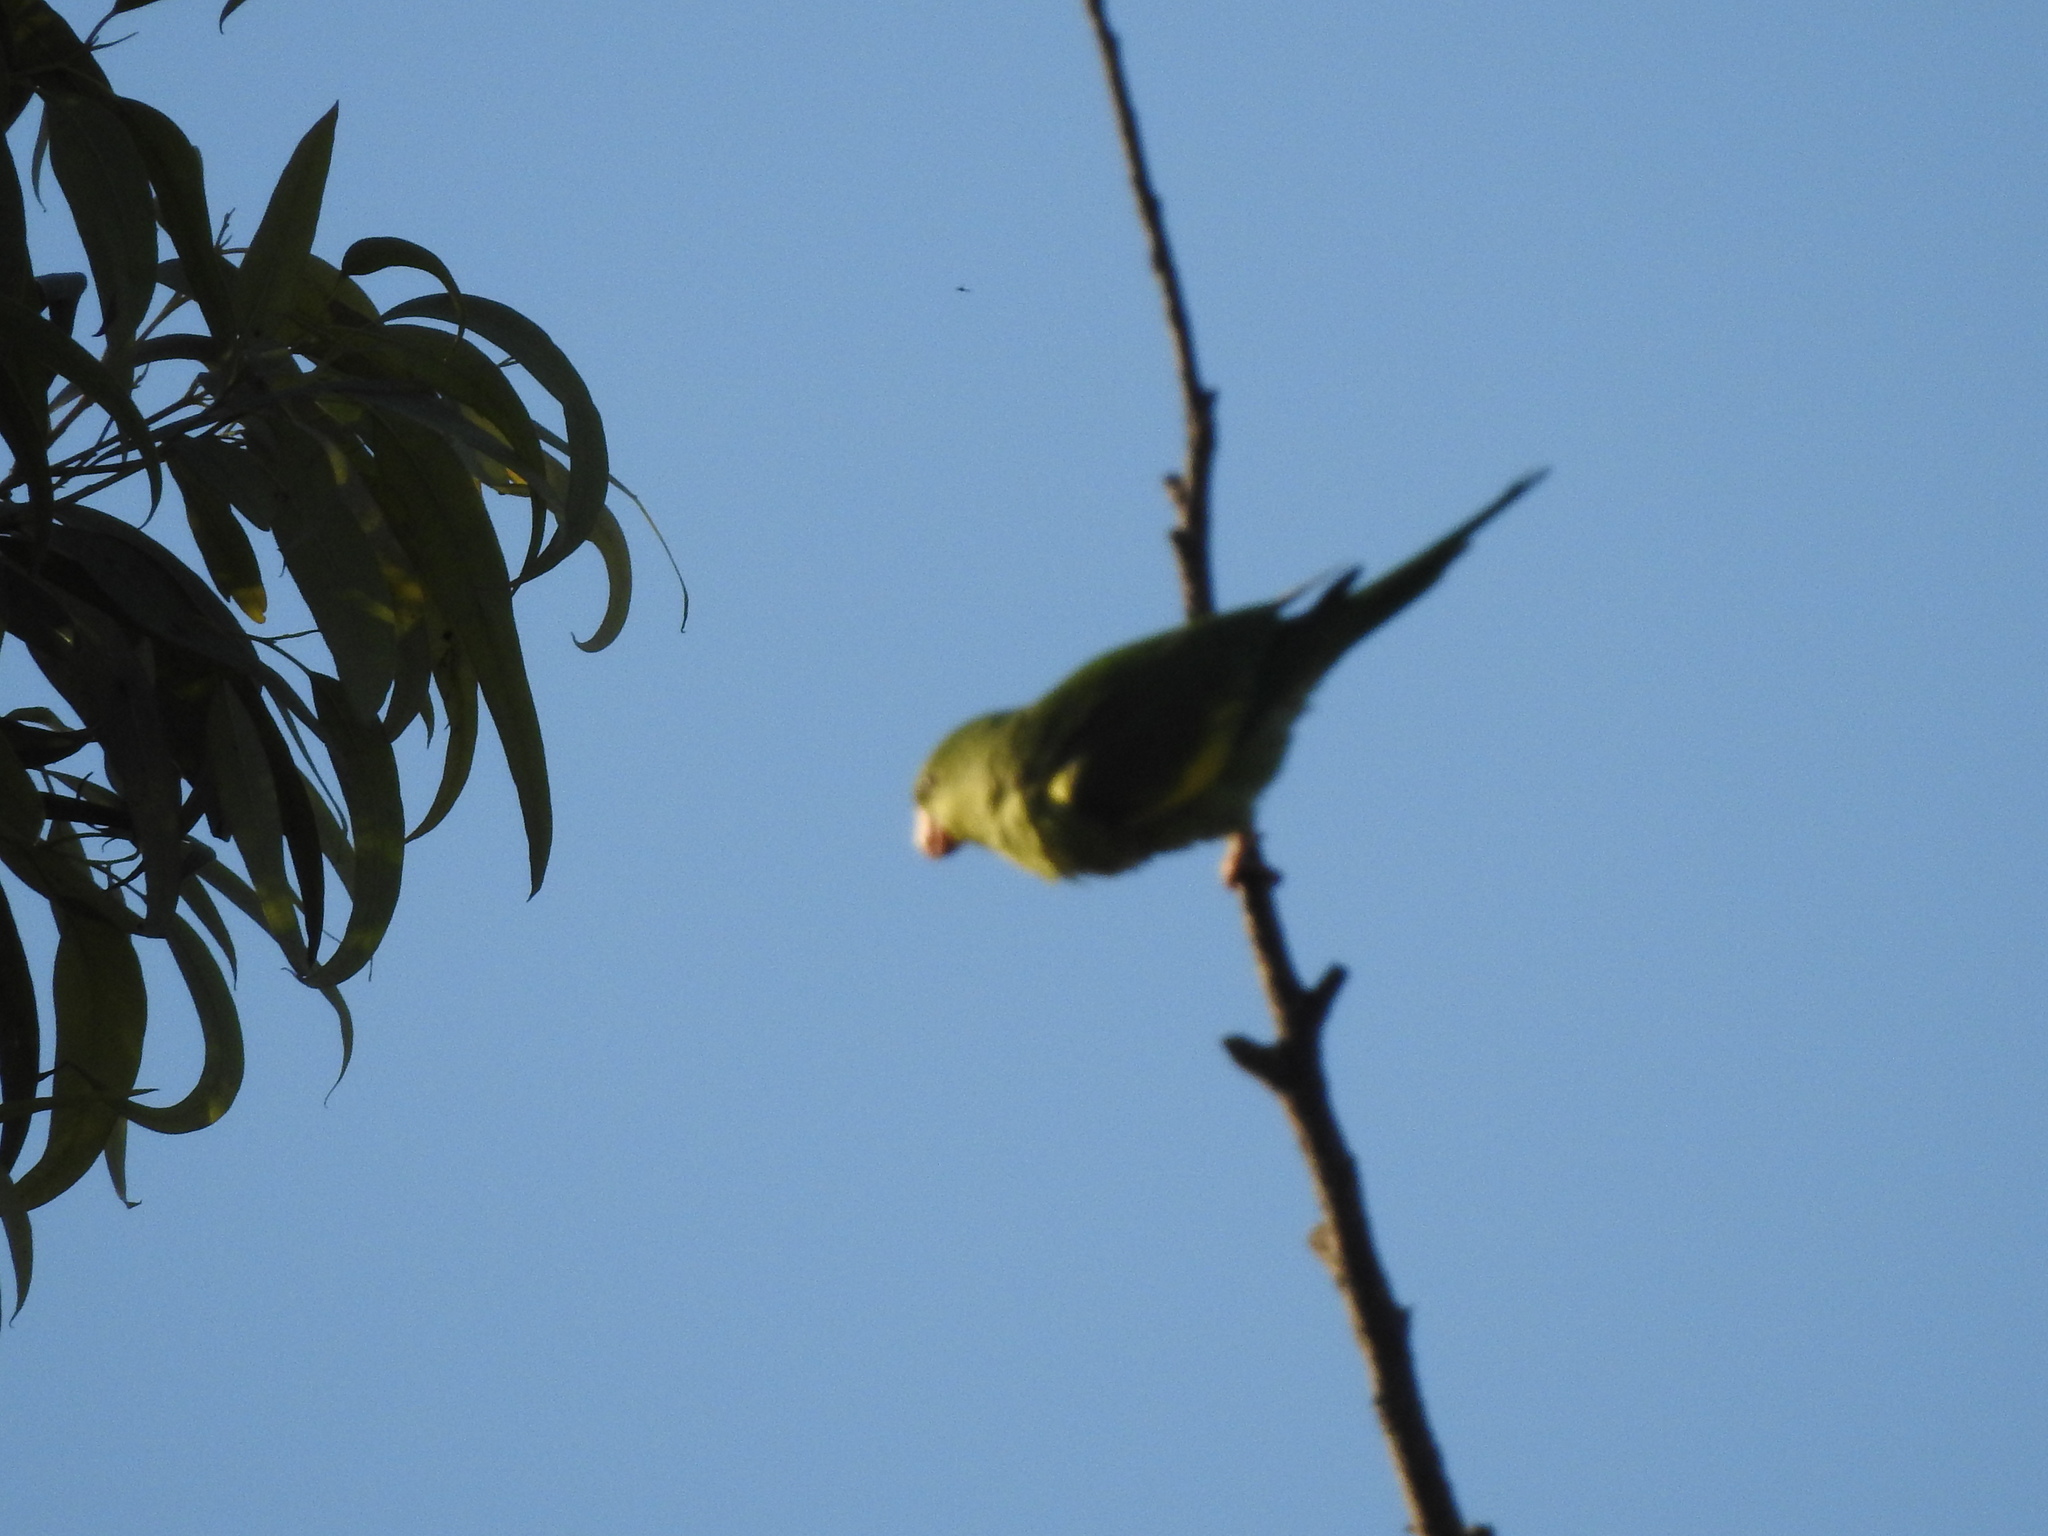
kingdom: Animalia
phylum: Chordata
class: Aves
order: Psittaciformes
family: Psittacidae
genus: Brotogeris
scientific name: Brotogeris chiriri
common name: Yellow-chevroned parakeet
